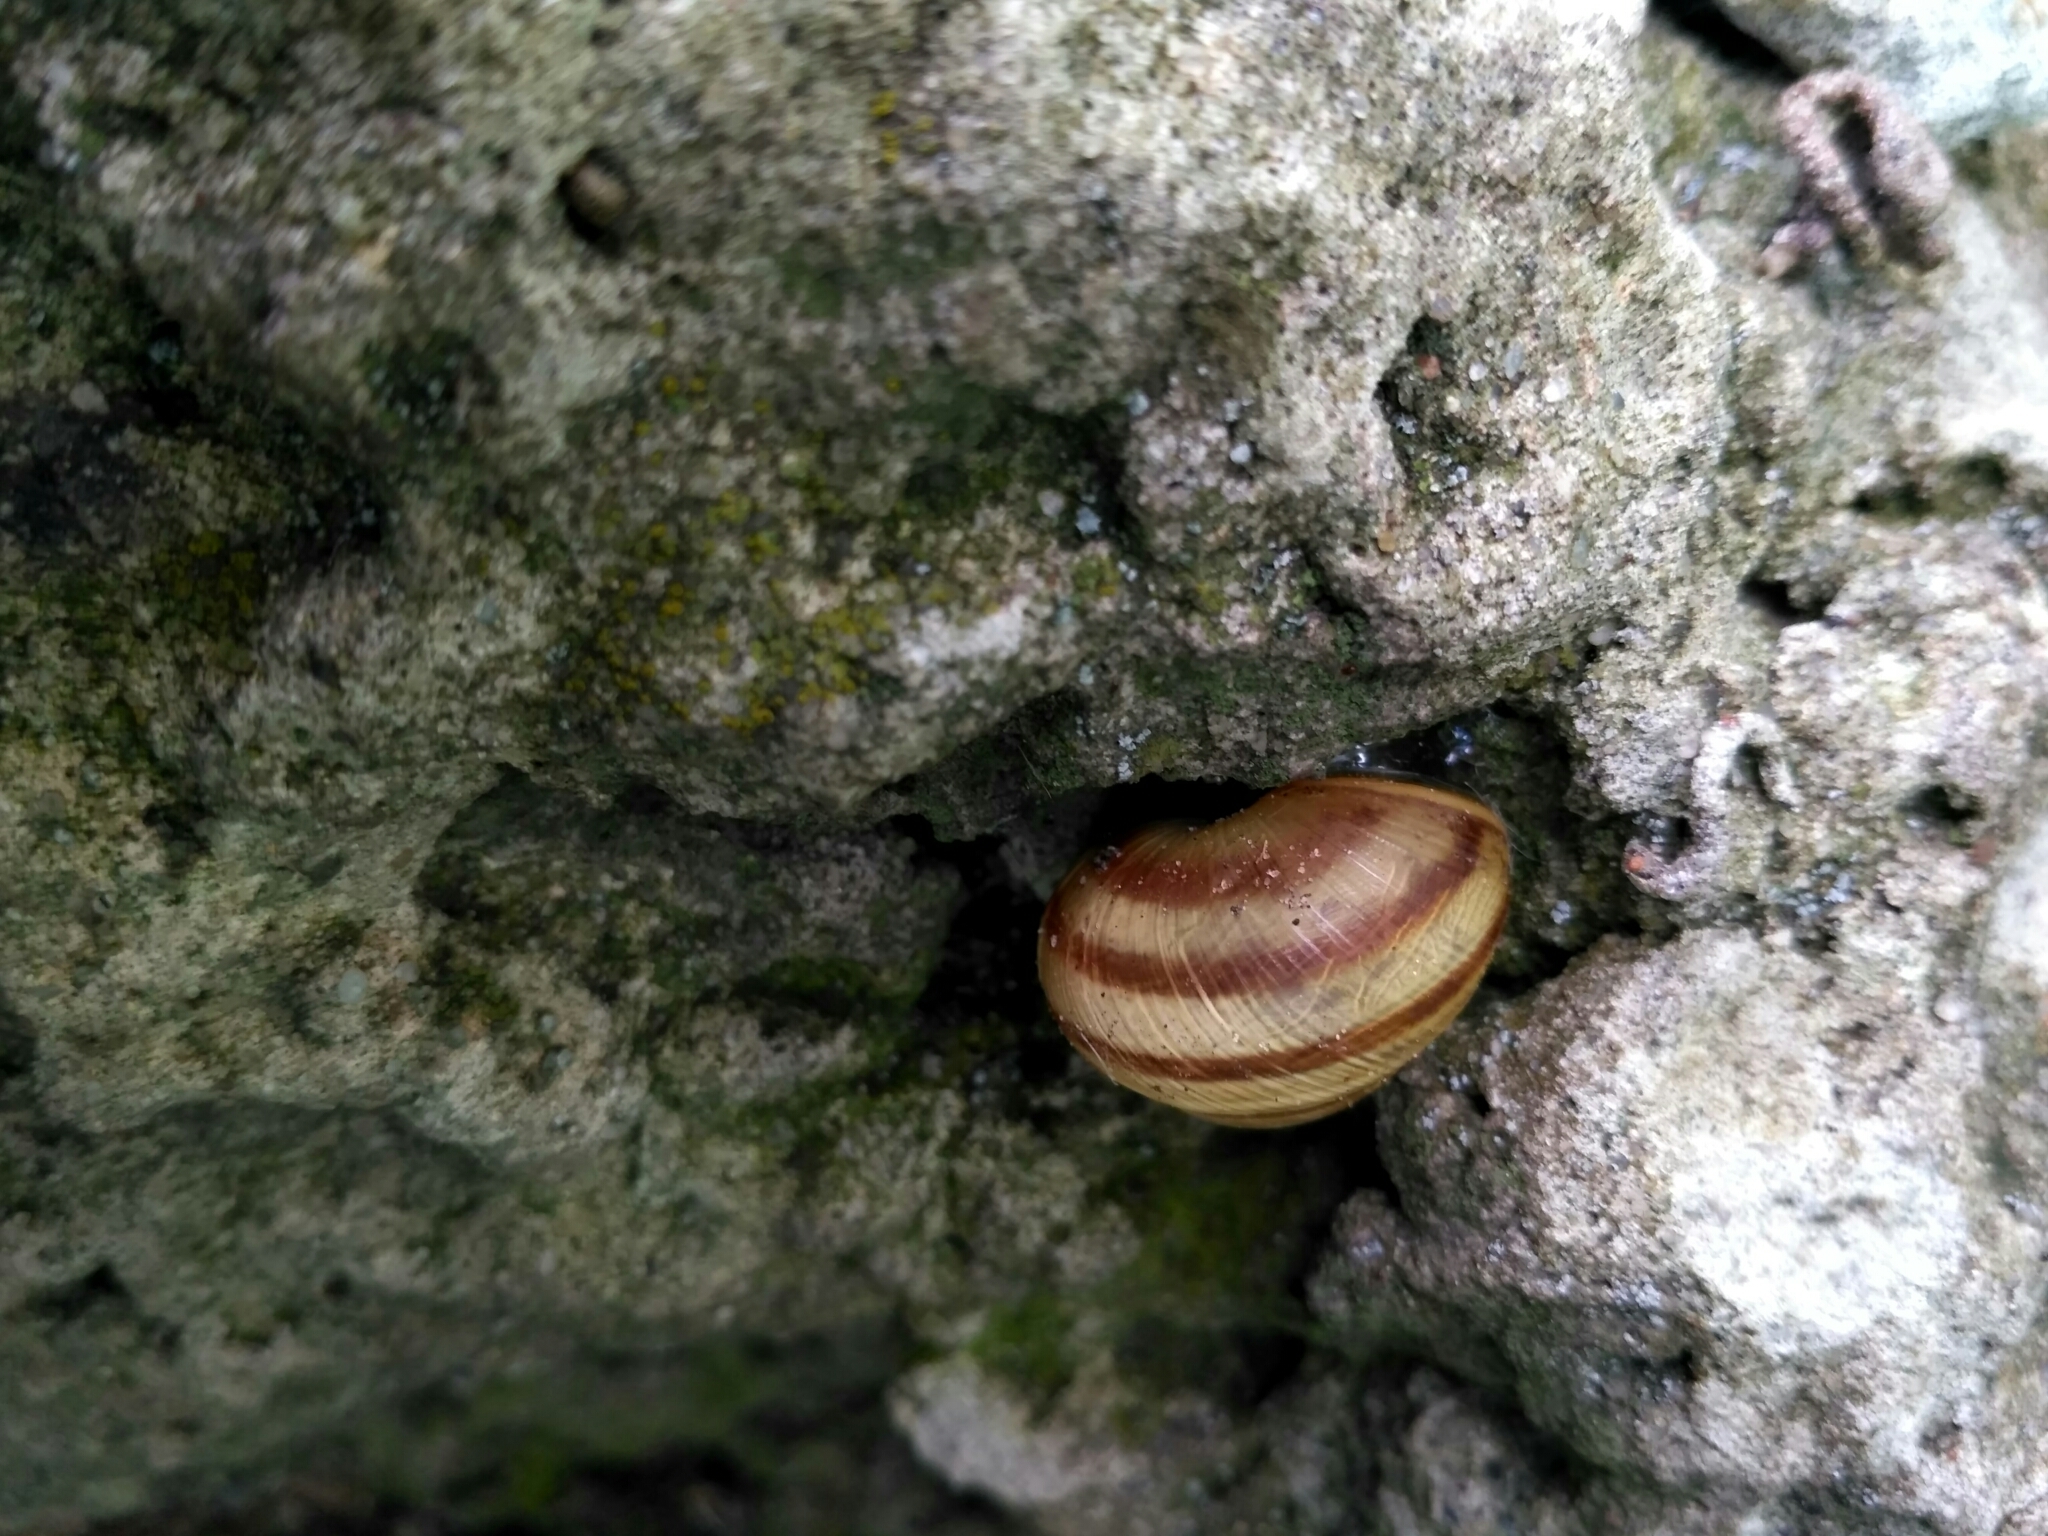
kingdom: Animalia
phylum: Mollusca
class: Gastropoda
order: Stylommatophora
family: Helicidae
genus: Caucasotachea
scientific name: Caucasotachea vindobonensis
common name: European helicid land snail
